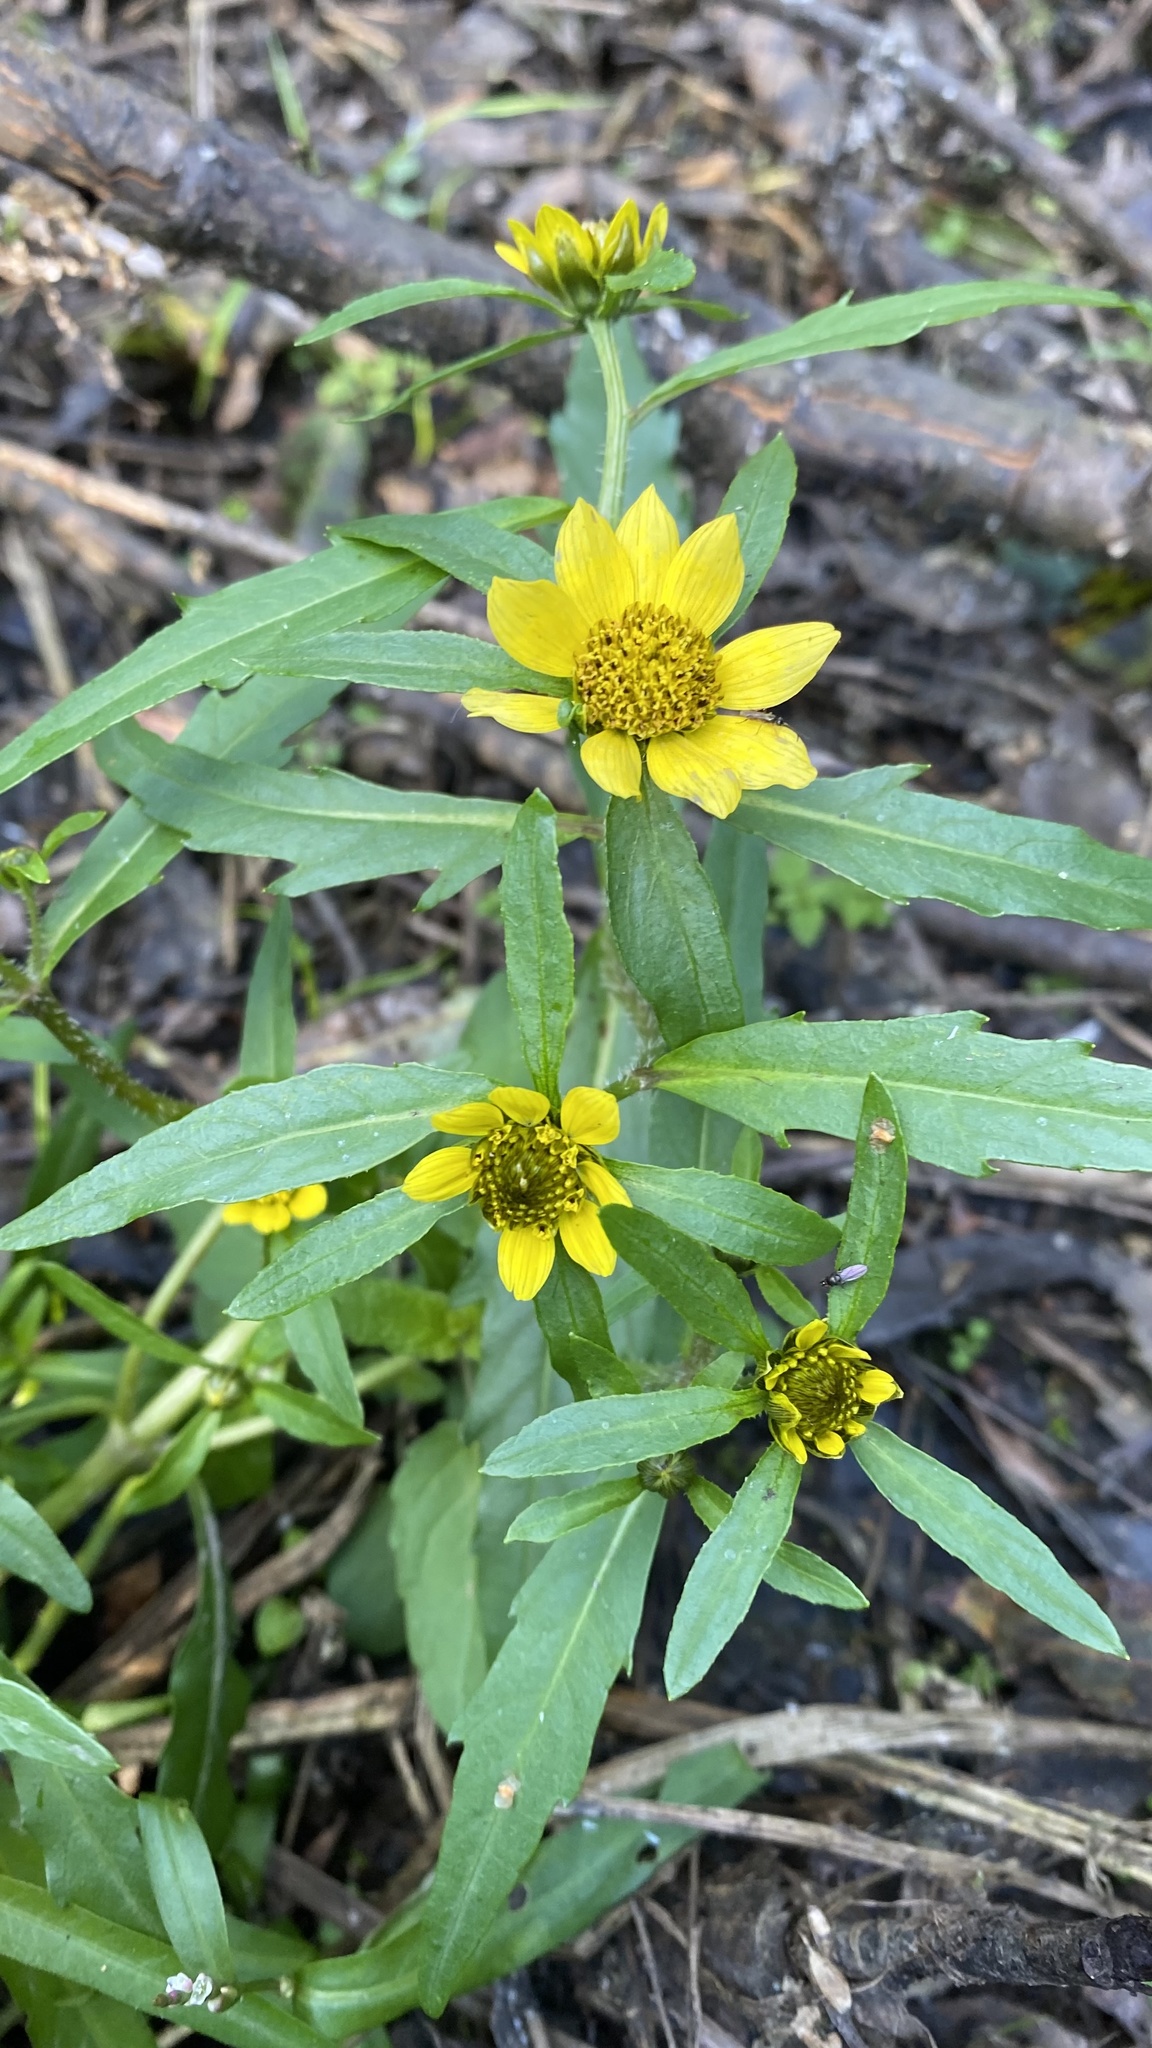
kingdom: Plantae
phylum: Tracheophyta
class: Magnoliopsida
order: Asterales
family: Asteraceae
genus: Bidens
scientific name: Bidens cernua
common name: Nodding bur-marigold
